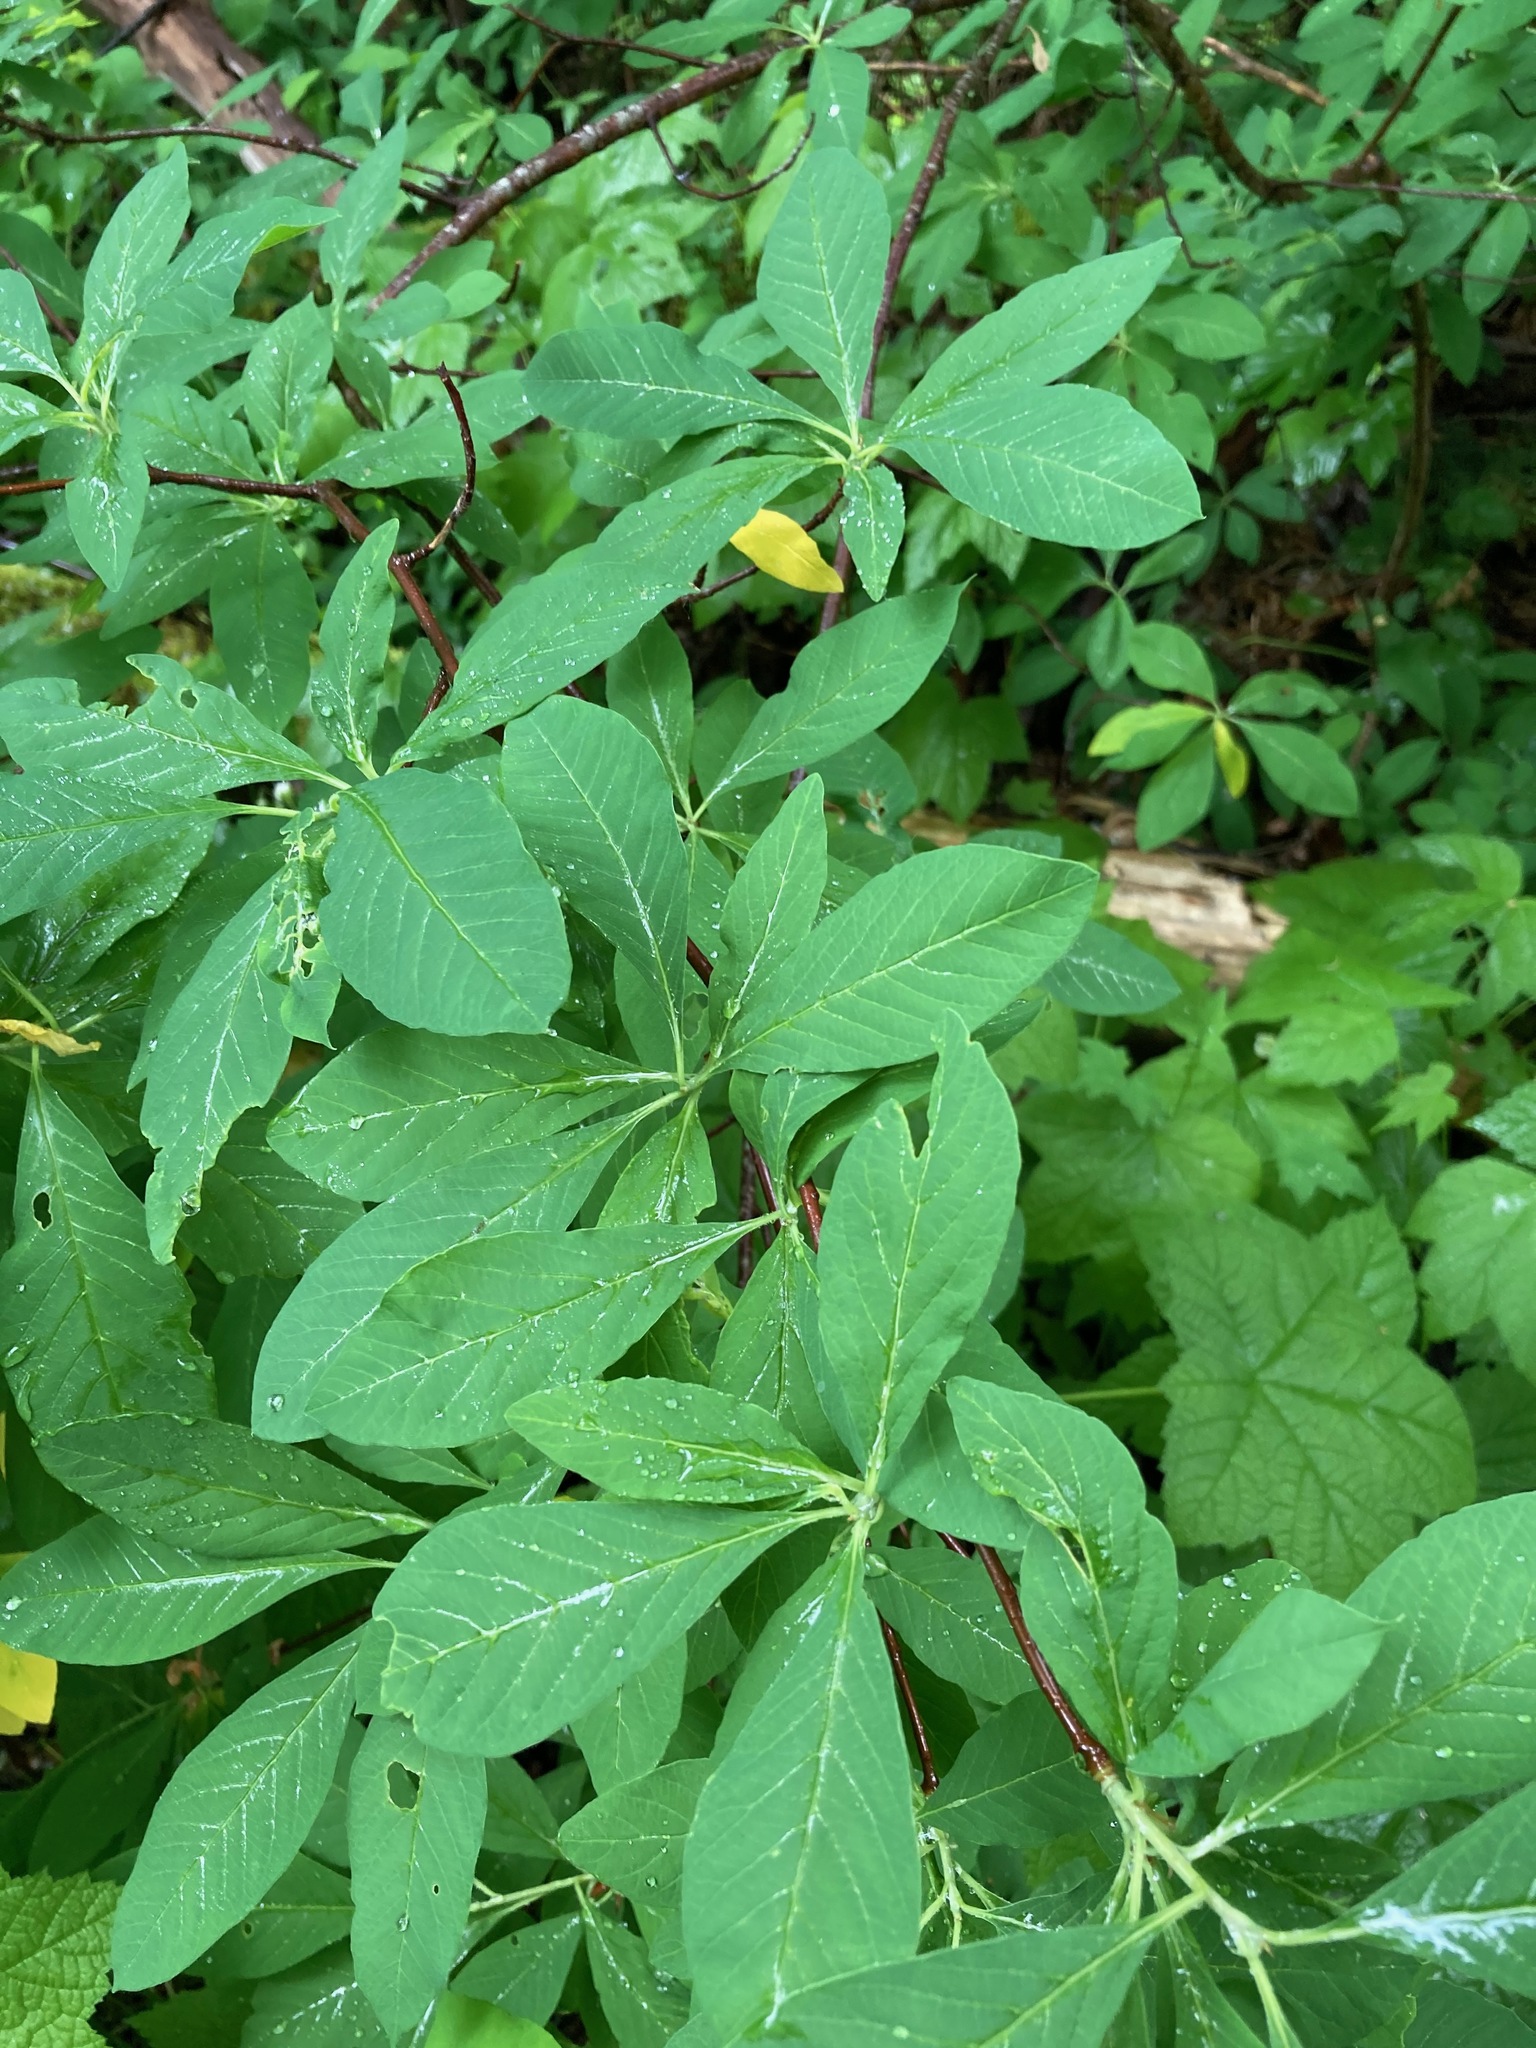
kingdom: Plantae
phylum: Tracheophyta
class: Magnoliopsida
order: Rosales
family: Rosaceae
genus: Oemleria
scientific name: Oemleria cerasiformis
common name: Osoberry
